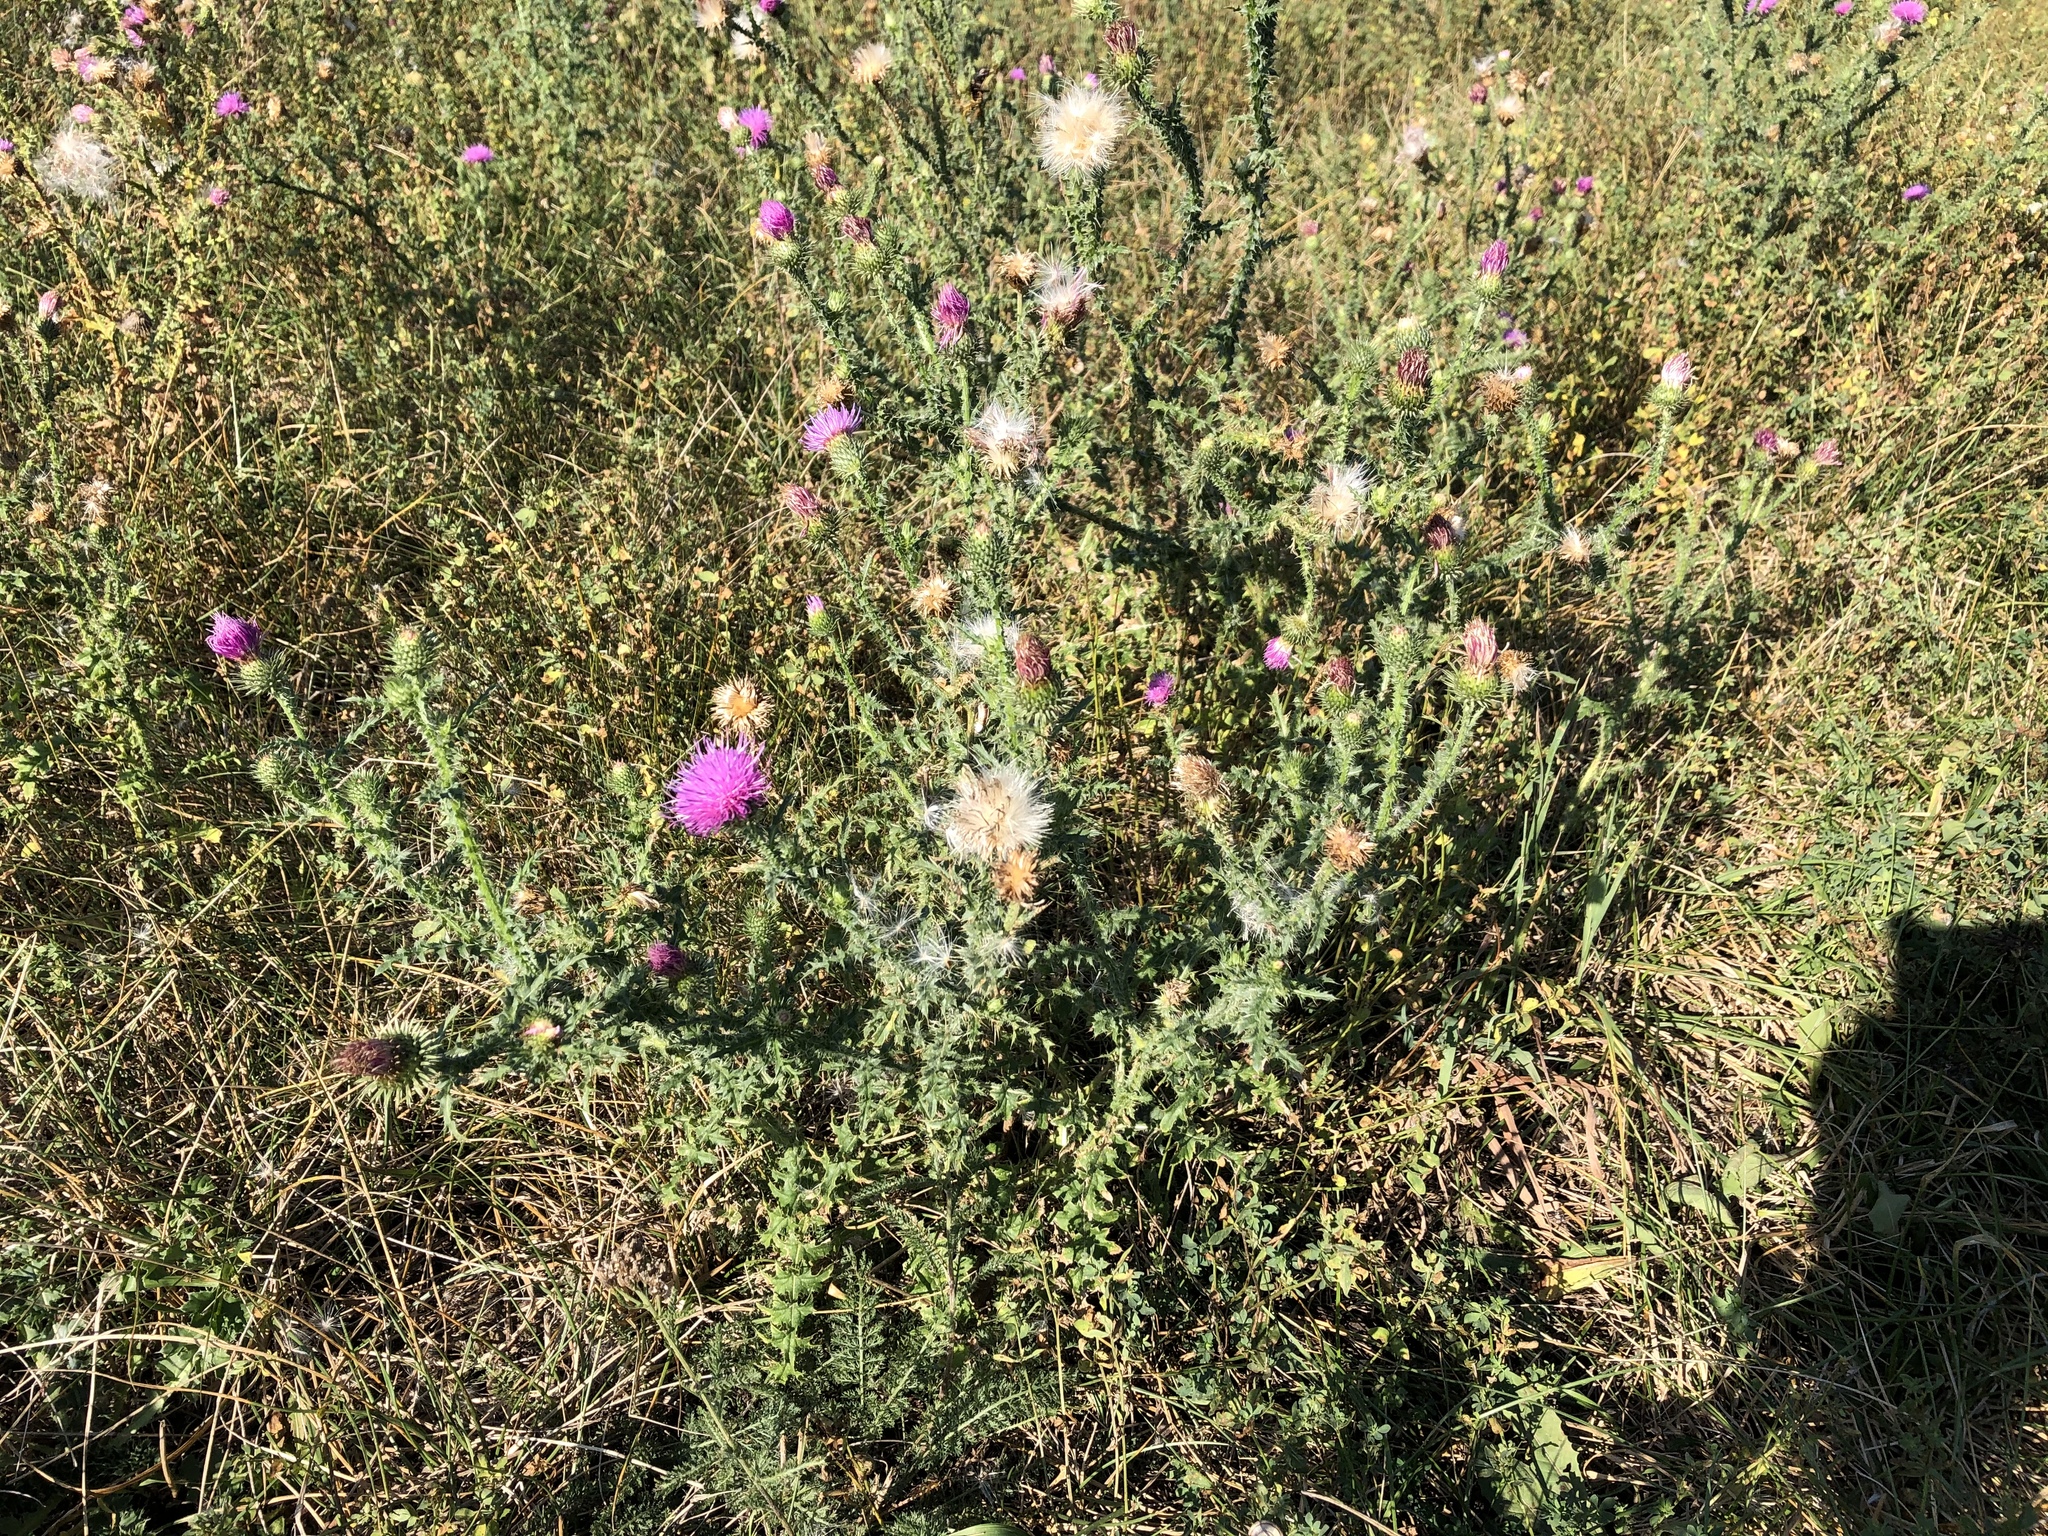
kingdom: Plantae
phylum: Tracheophyta
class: Magnoliopsida
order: Asterales
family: Asteraceae
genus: Carduus
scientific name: Carduus acanthoides
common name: Plumeless thistle
